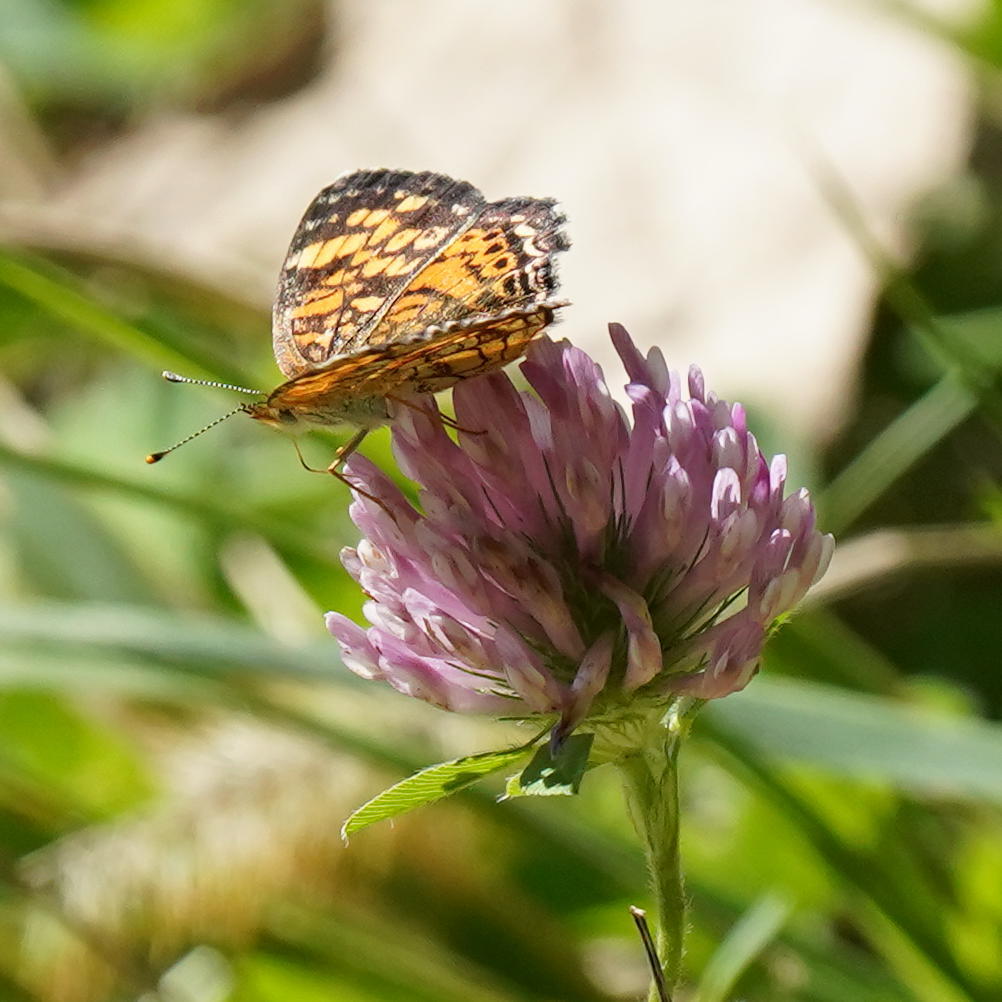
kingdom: Animalia
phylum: Arthropoda
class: Insecta
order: Lepidoptera
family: Nymphalidae
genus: Phyciodes
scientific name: Phyciodes tharos
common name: Pearl crescent
